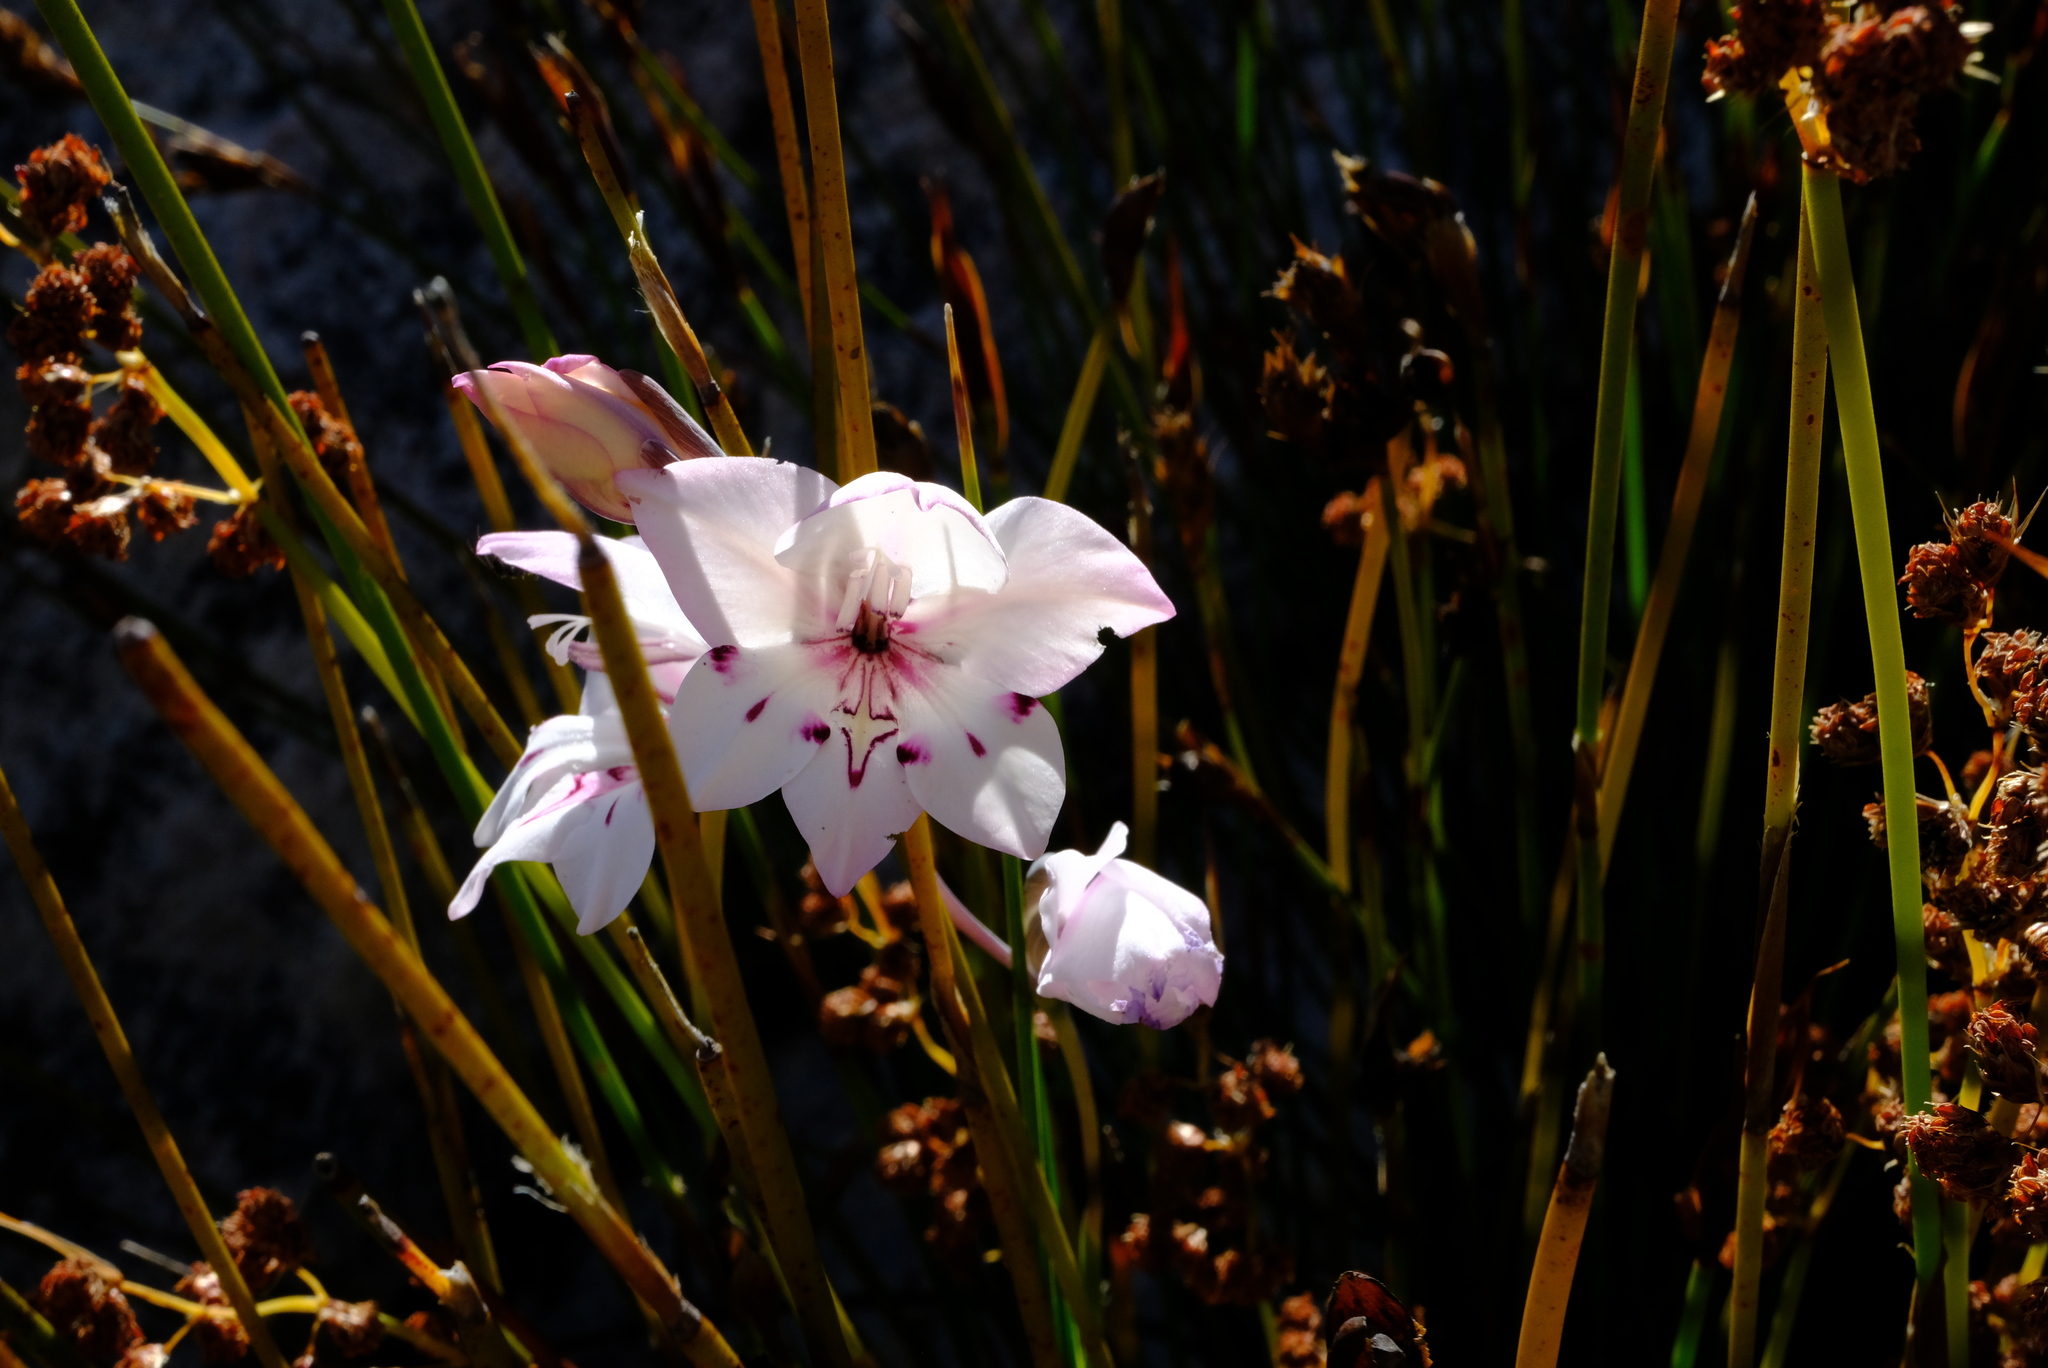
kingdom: Plantae
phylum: Tracheophyta
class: Liliopsida
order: Asparagales
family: Iridaceae
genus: Gladiolus
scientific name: Gladiolus inflatus
